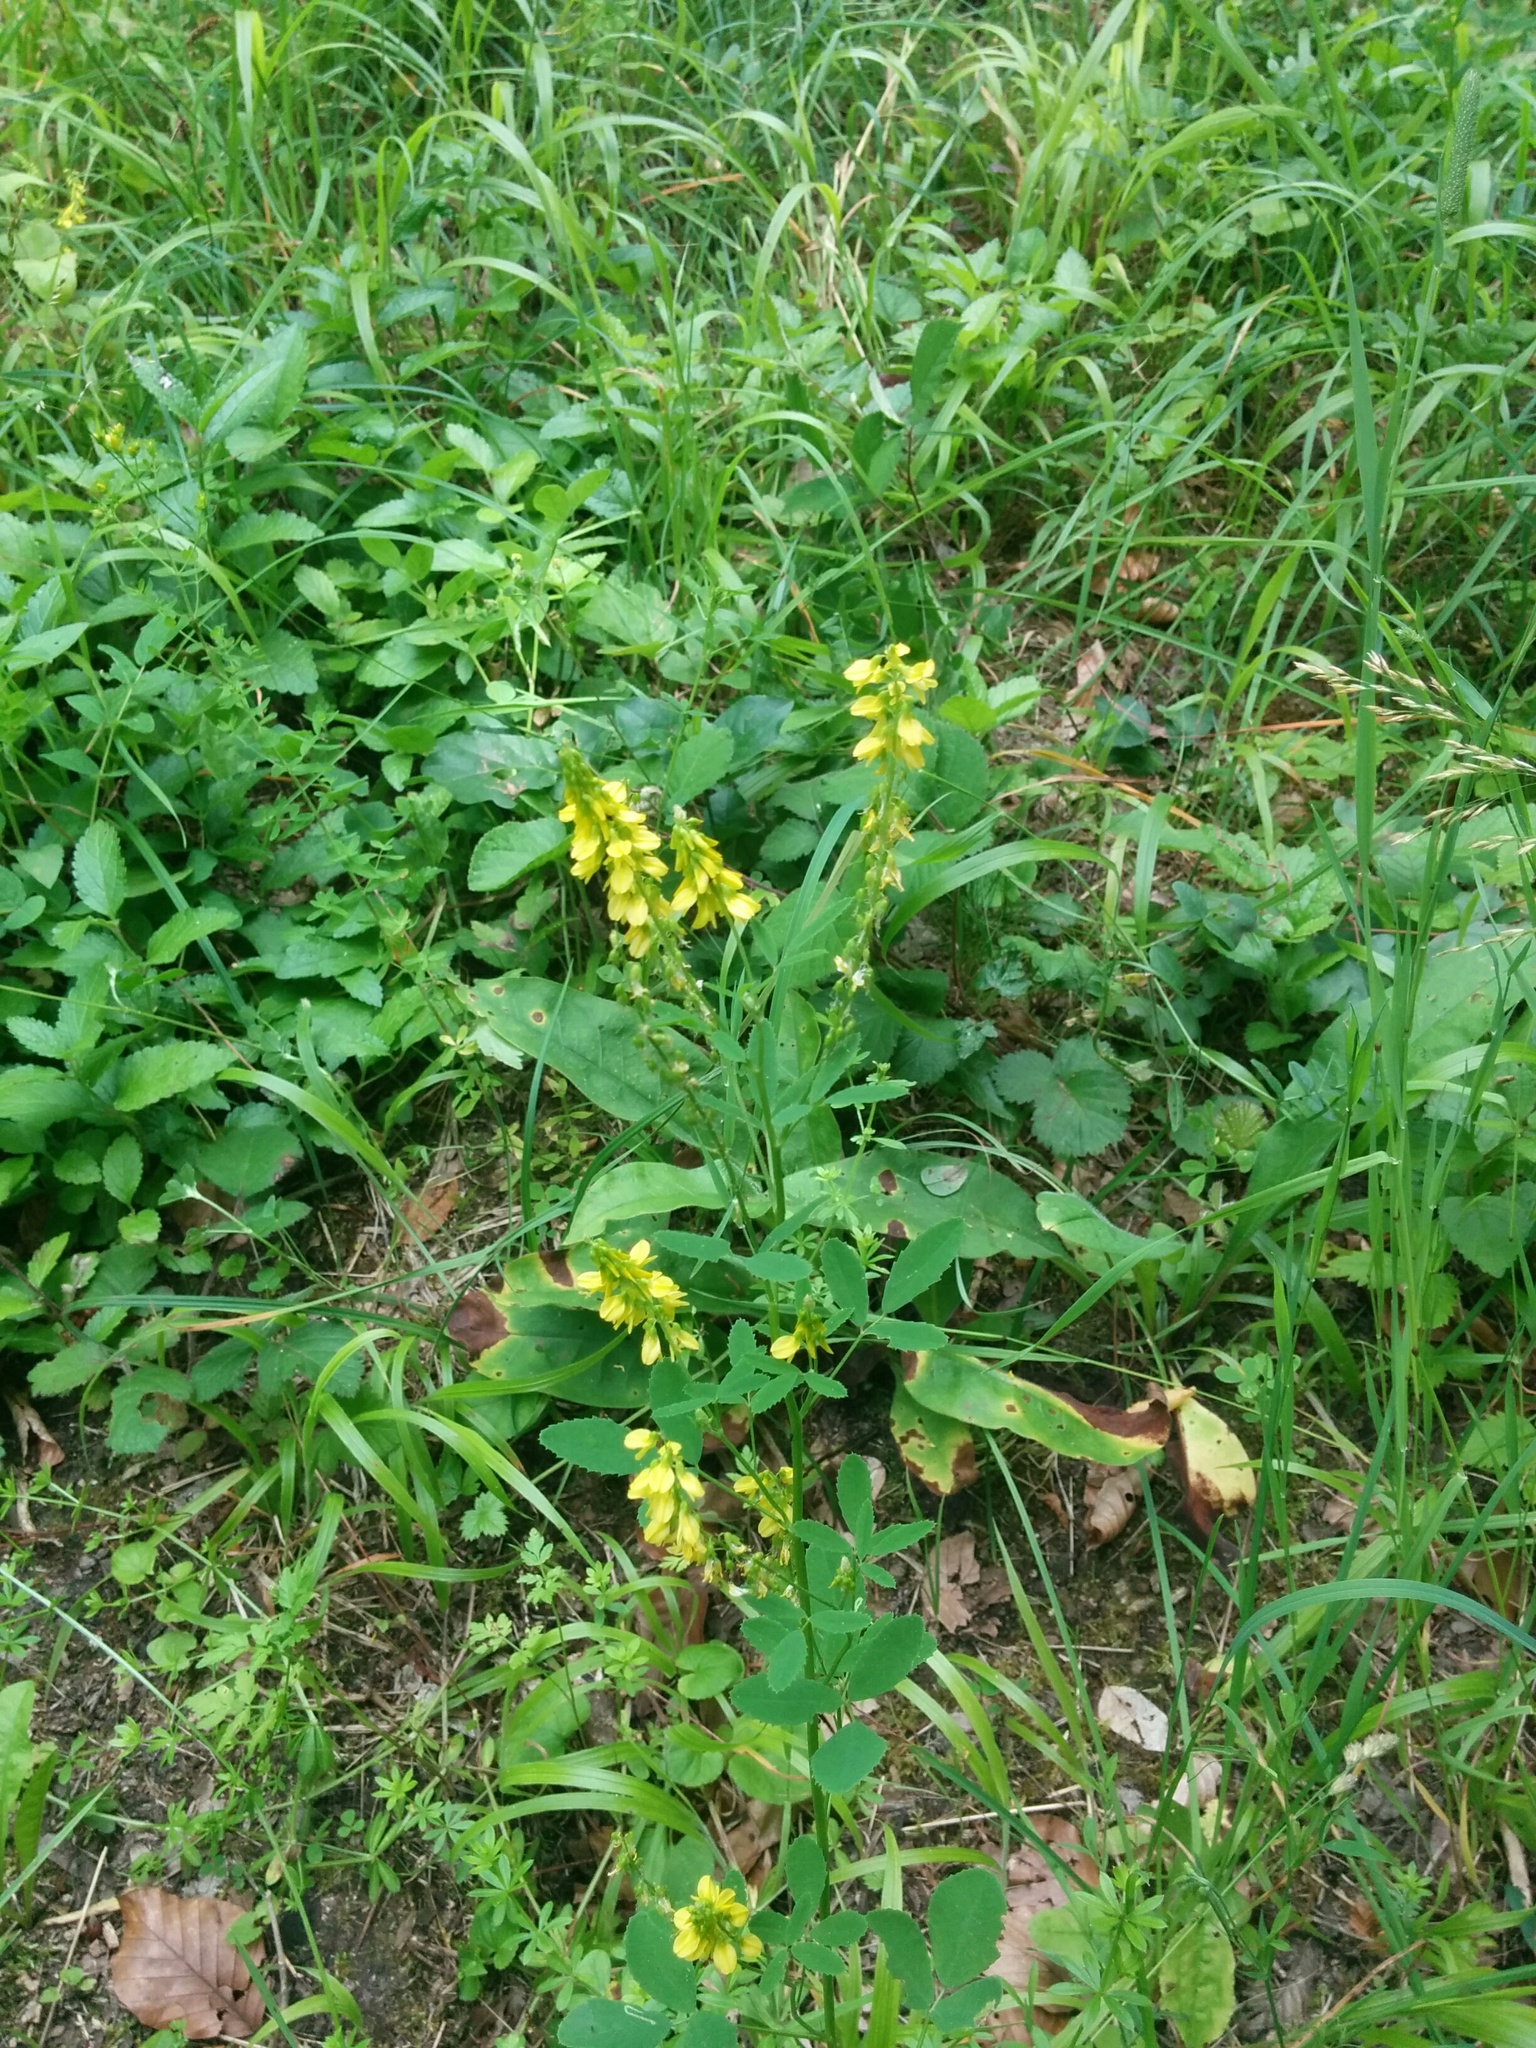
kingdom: Plantae
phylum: Tracheophyta
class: Magnoliopsida
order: Fabales
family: Fabaceae
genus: Melilotus
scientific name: Melilotus officinalis
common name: Sweetclover
